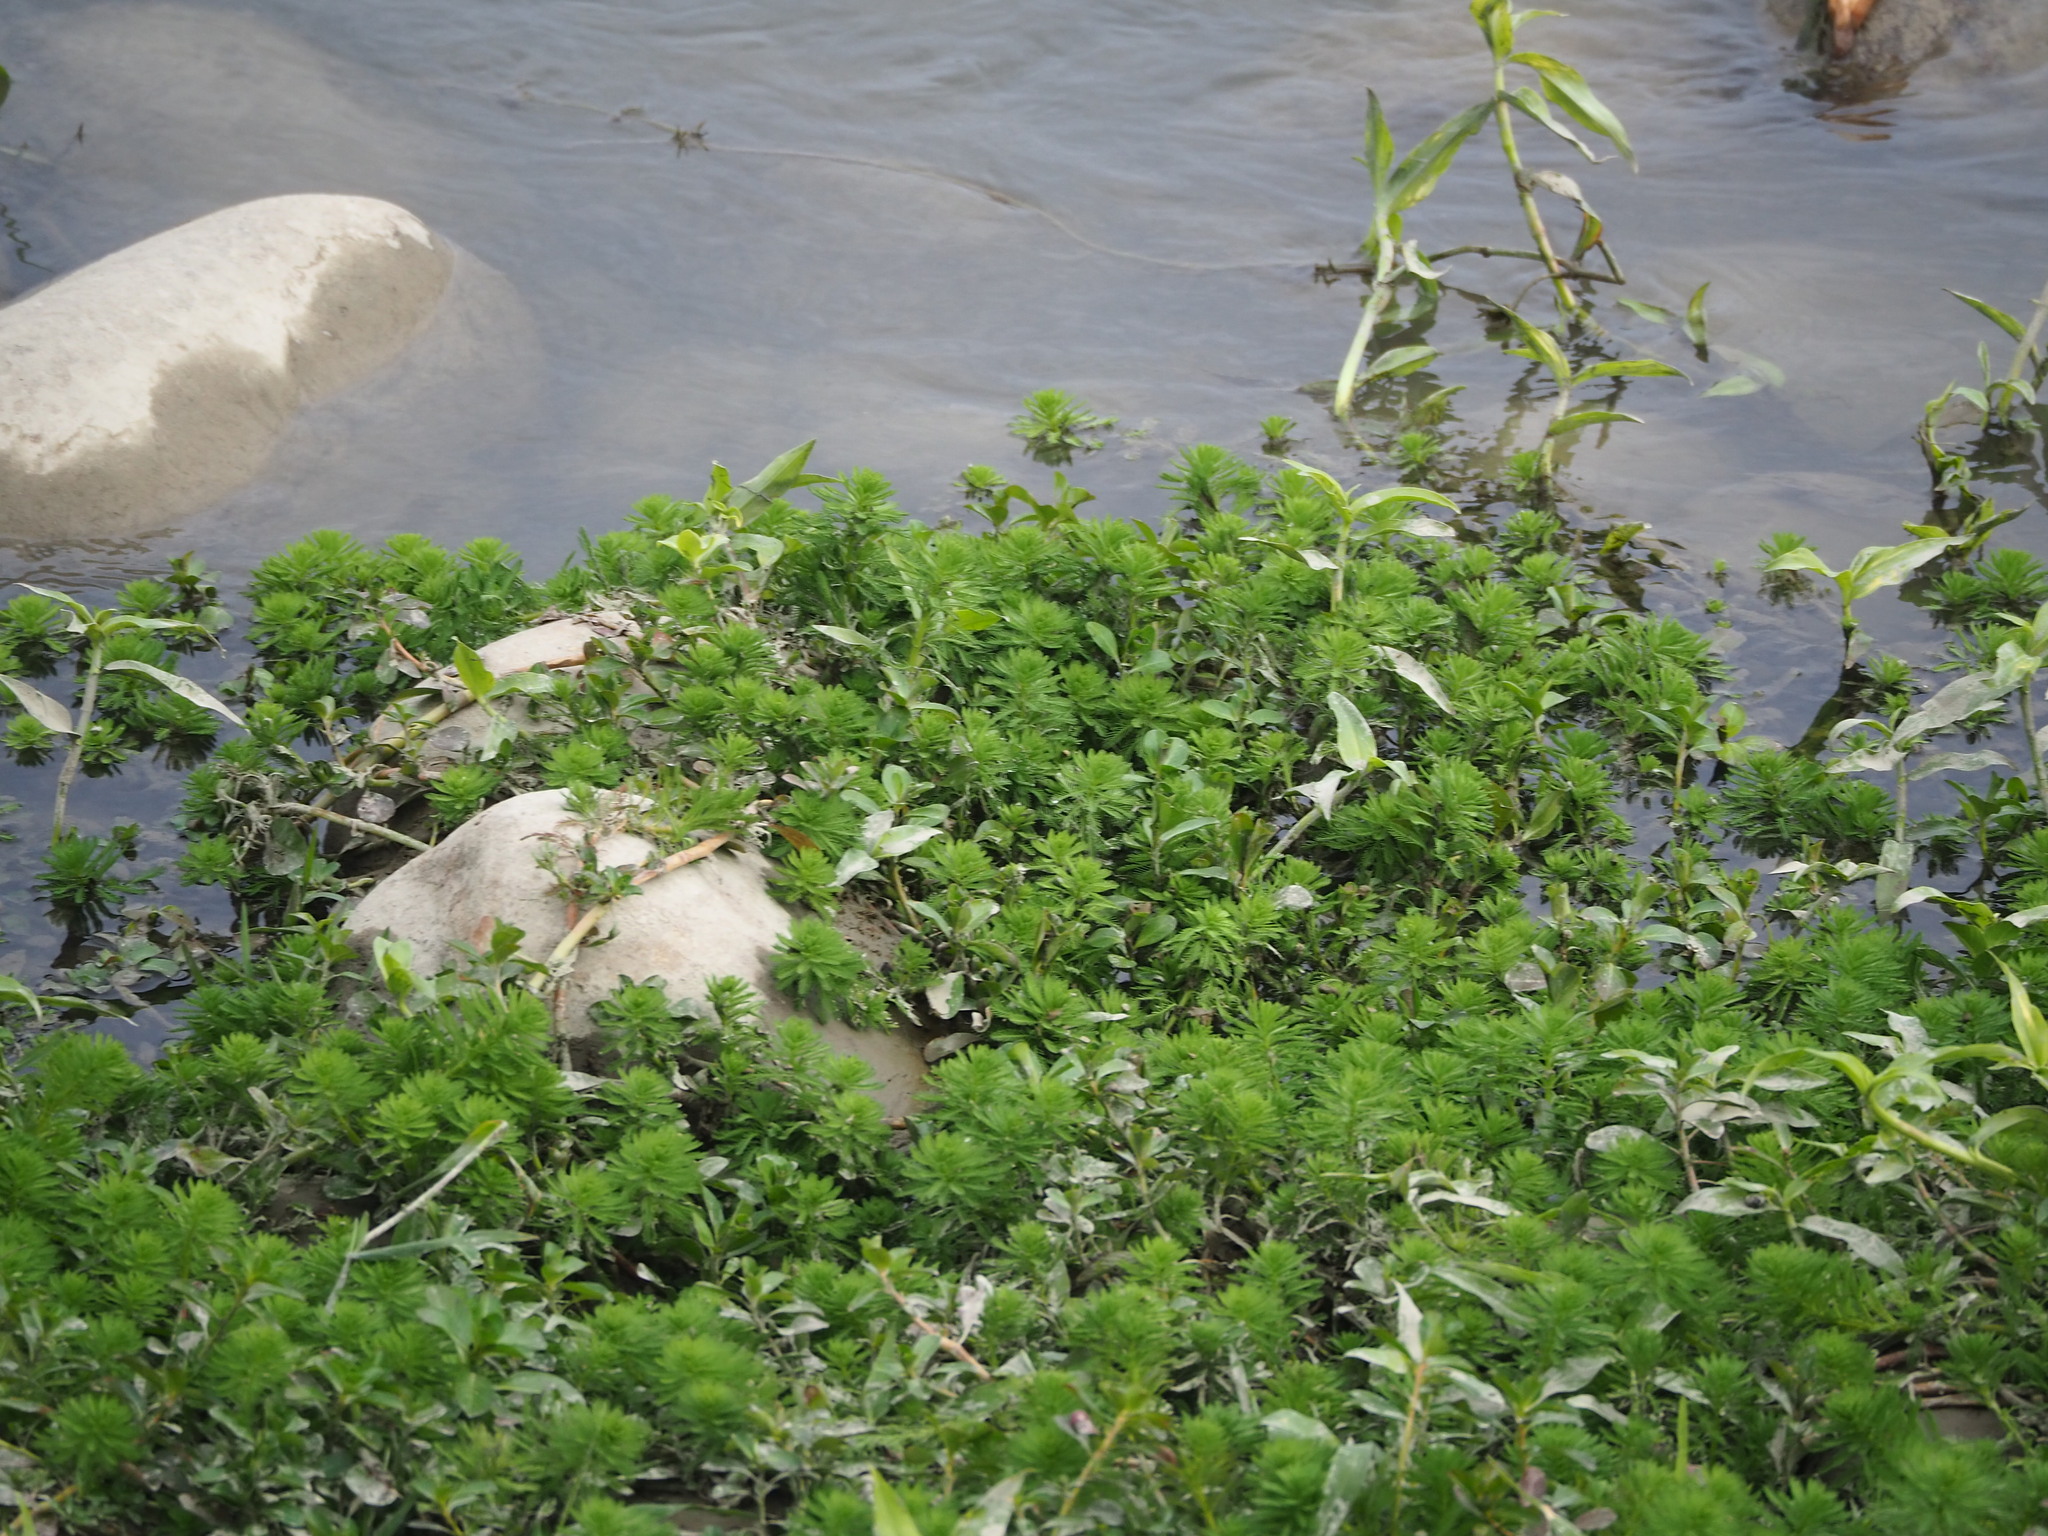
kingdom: Plantae
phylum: Tracheophyta
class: Magnoliopsida
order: Saxifragales
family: Haloragaceae
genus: Myriophyllum
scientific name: Myriophyllum aquaticum
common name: Parrot's feather
